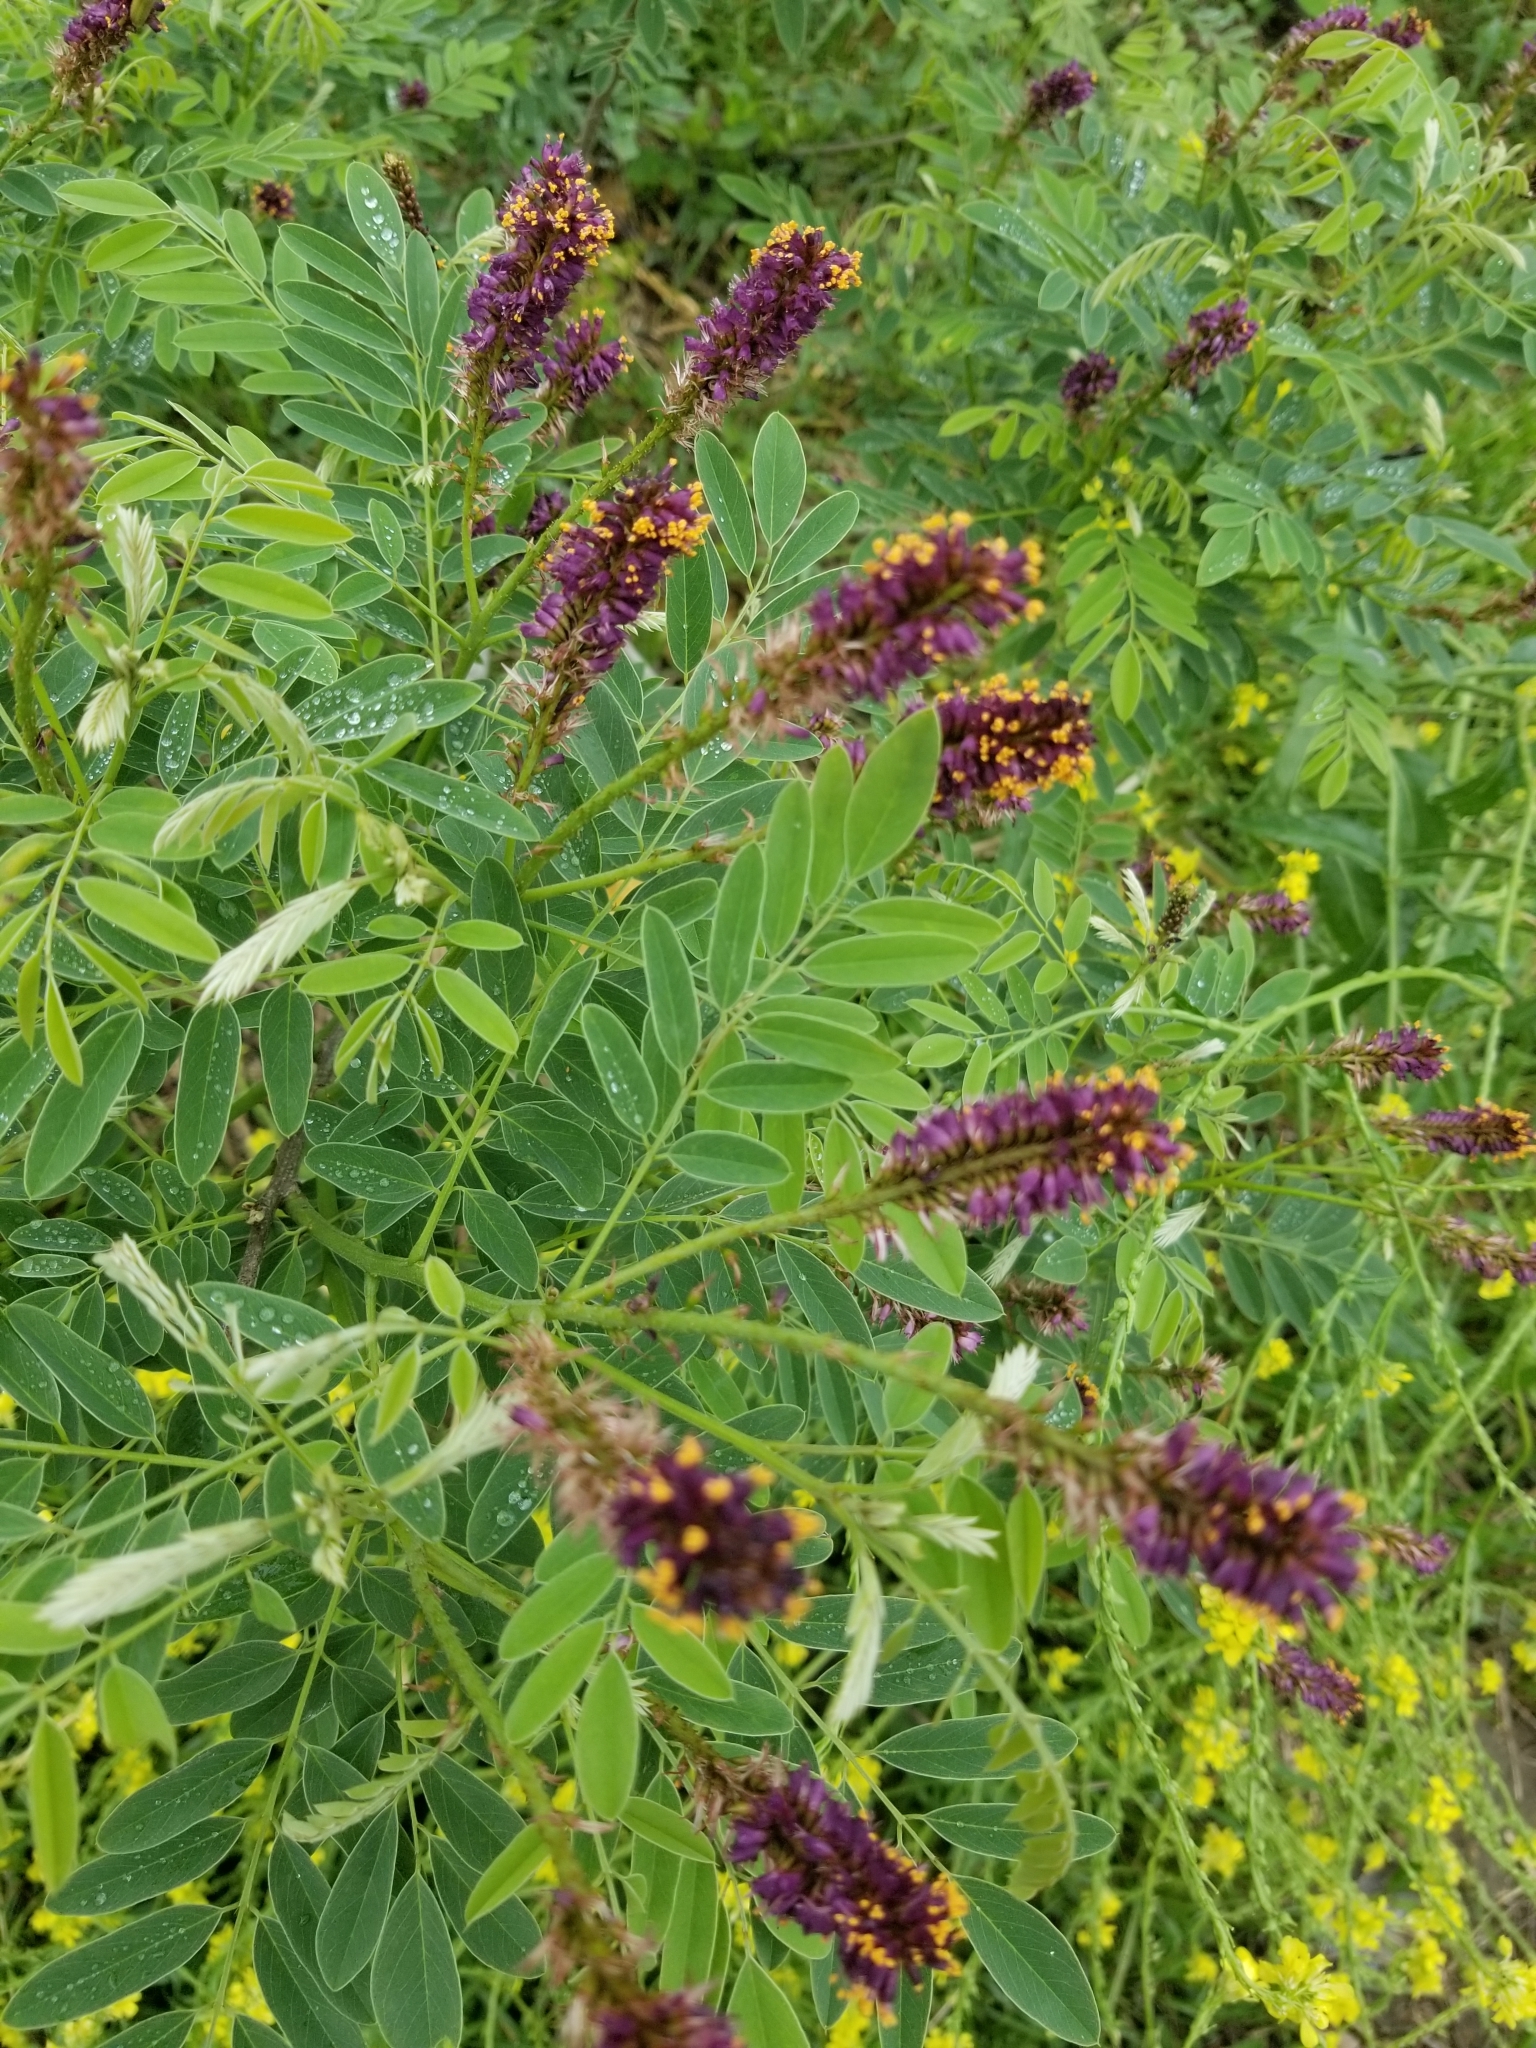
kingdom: Plantae
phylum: Tracheophyta
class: Magnoliopsida
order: Fabales
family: Fabaceae
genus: Amorpha
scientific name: Amorpha fruticosa
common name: False indigo
